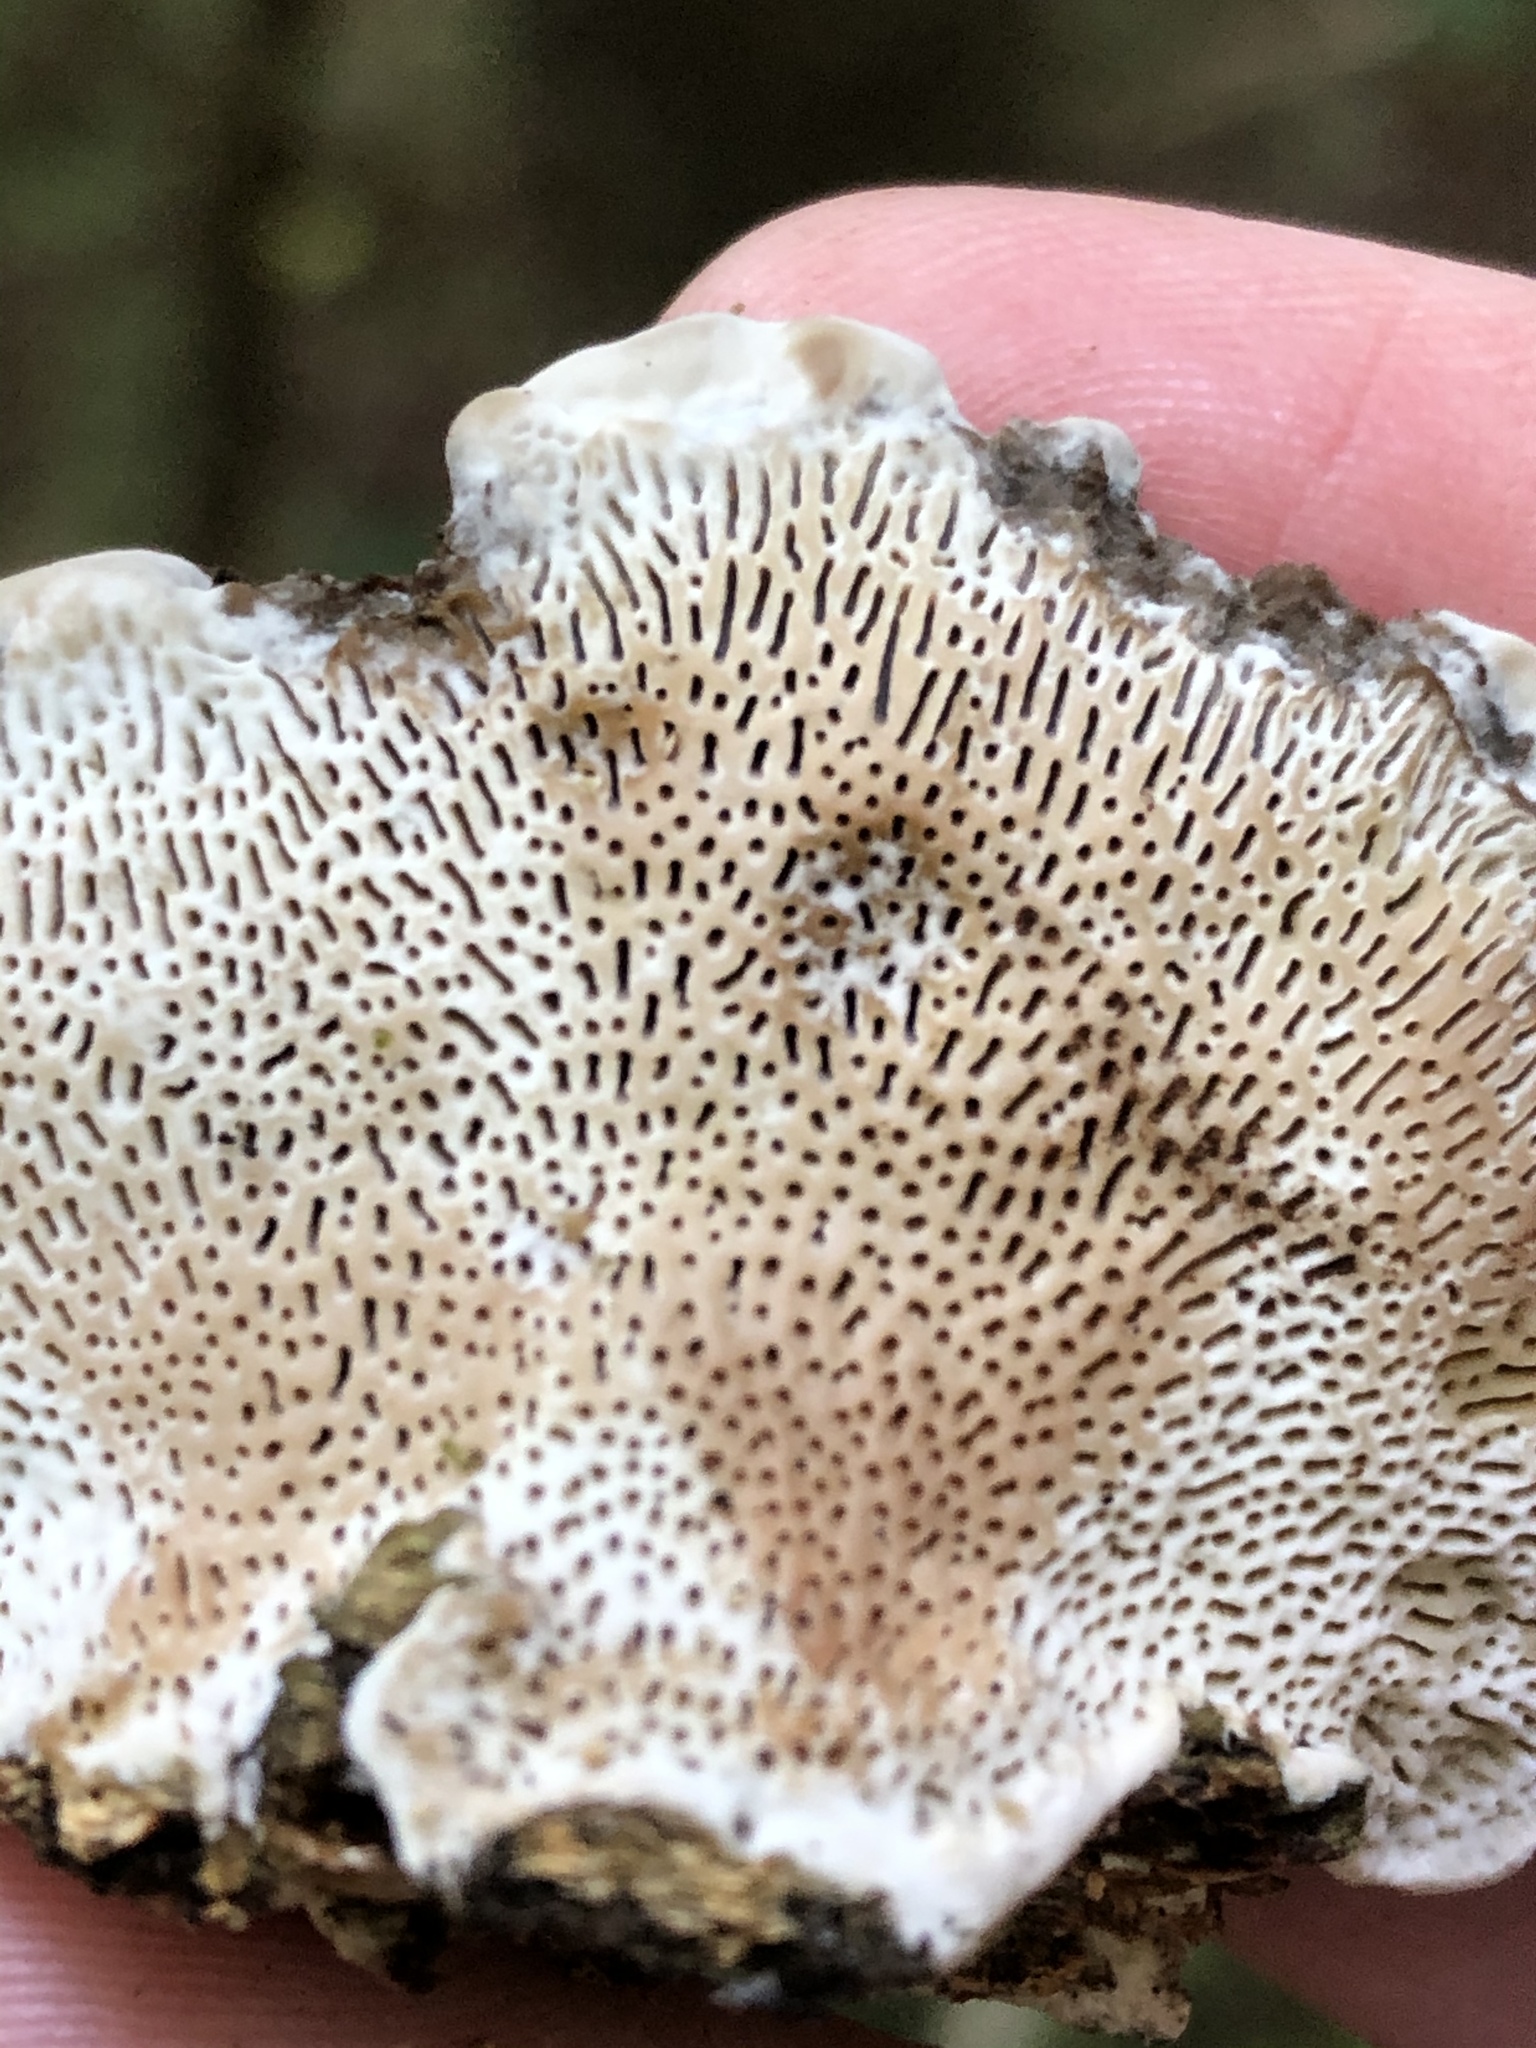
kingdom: Fungi
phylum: Basidiomycota
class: Agaricomycetes
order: Polyporales
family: Polyporaceae
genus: Daedaleopsis
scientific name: Daedaleopsis confragosa
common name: Blushing bracket
